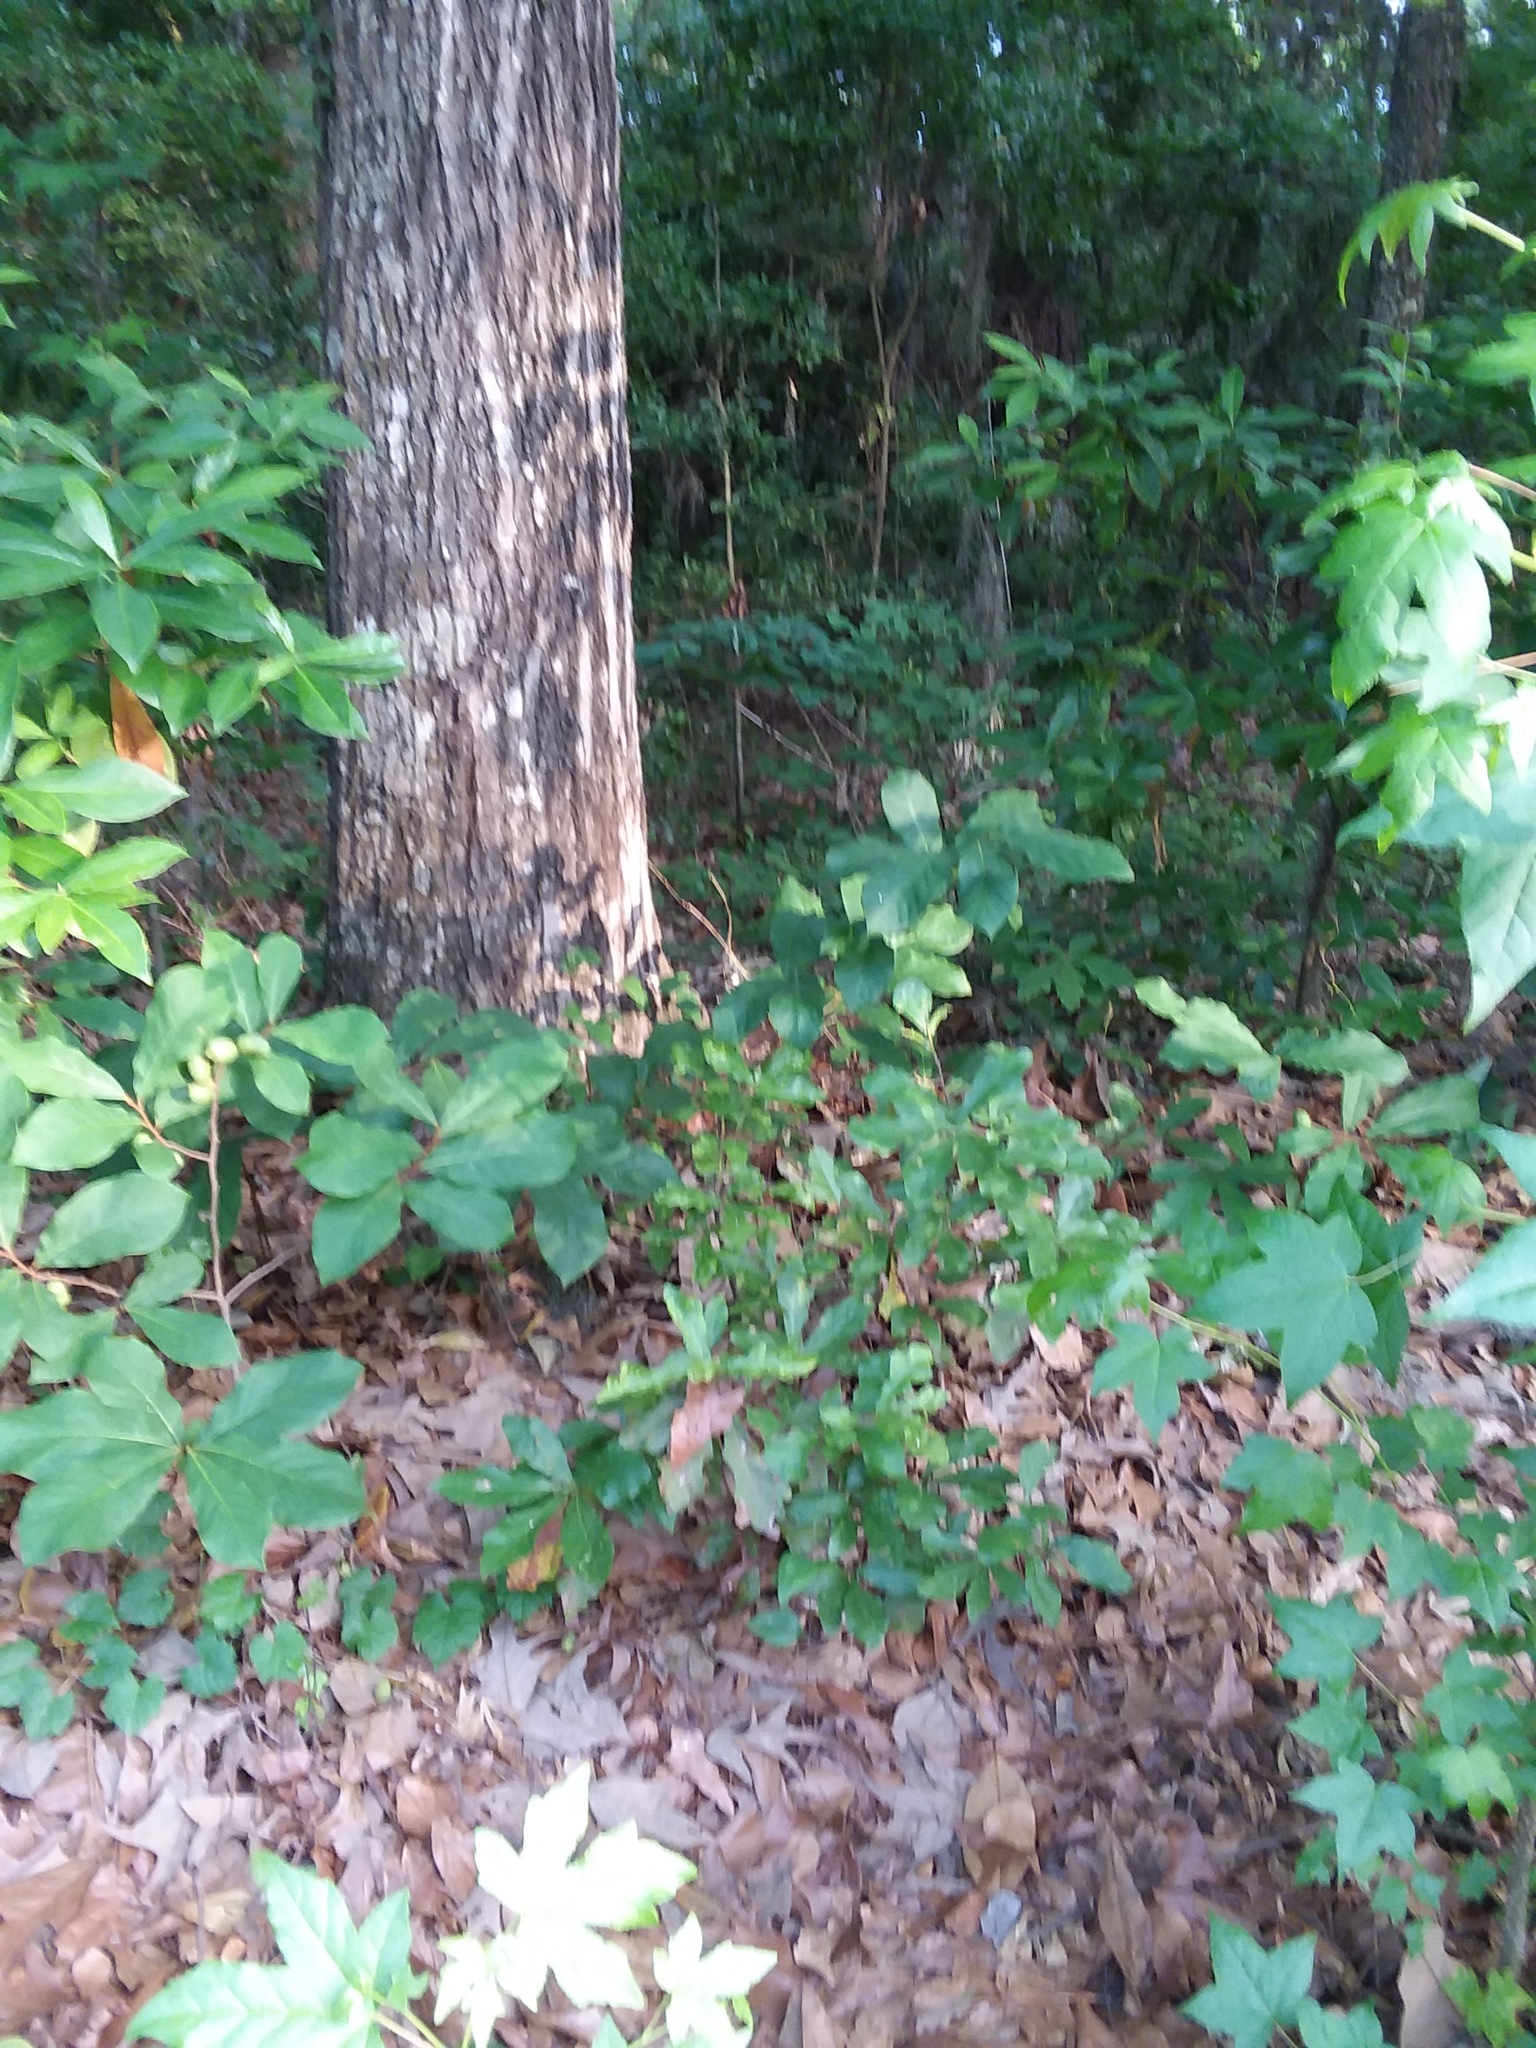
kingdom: Plantae
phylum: Tracheophyta
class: Magnoliopsida
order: Magnoliales
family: Annonaceae
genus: Asimina
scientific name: Asimina parviflora
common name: Dwarf pawpaw
